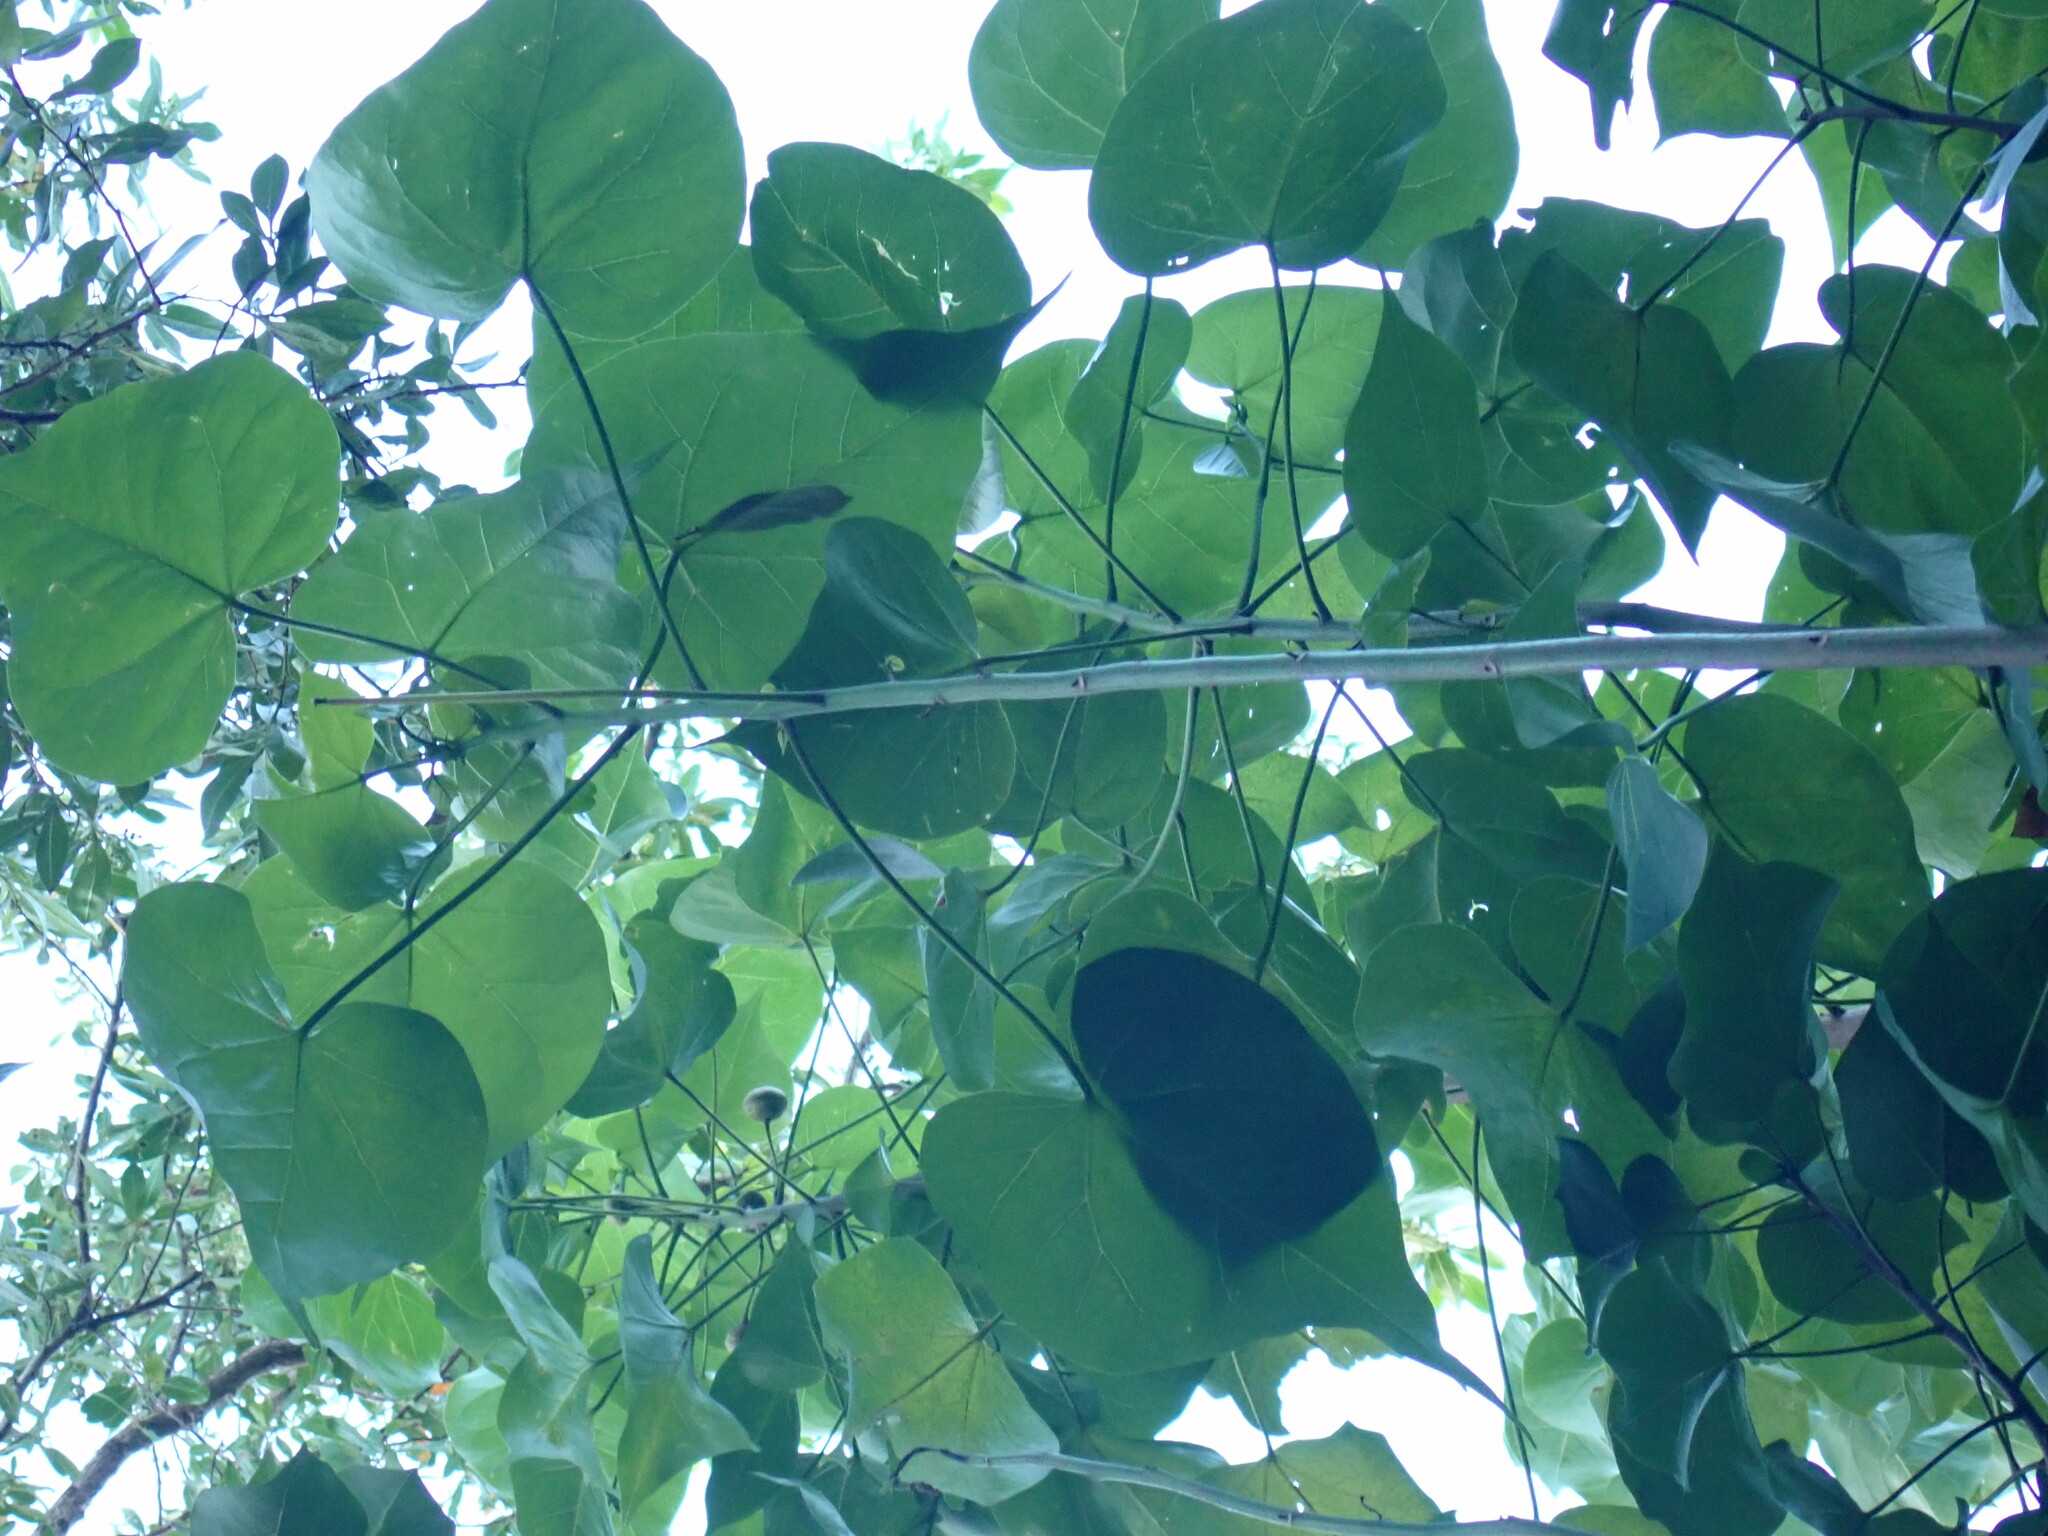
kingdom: Plantae
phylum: Tracheophyta
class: Magnoliopsida
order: Malvales
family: Malvaceae
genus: Thespesia
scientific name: Thespesia populnea
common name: Seaside mahoe
